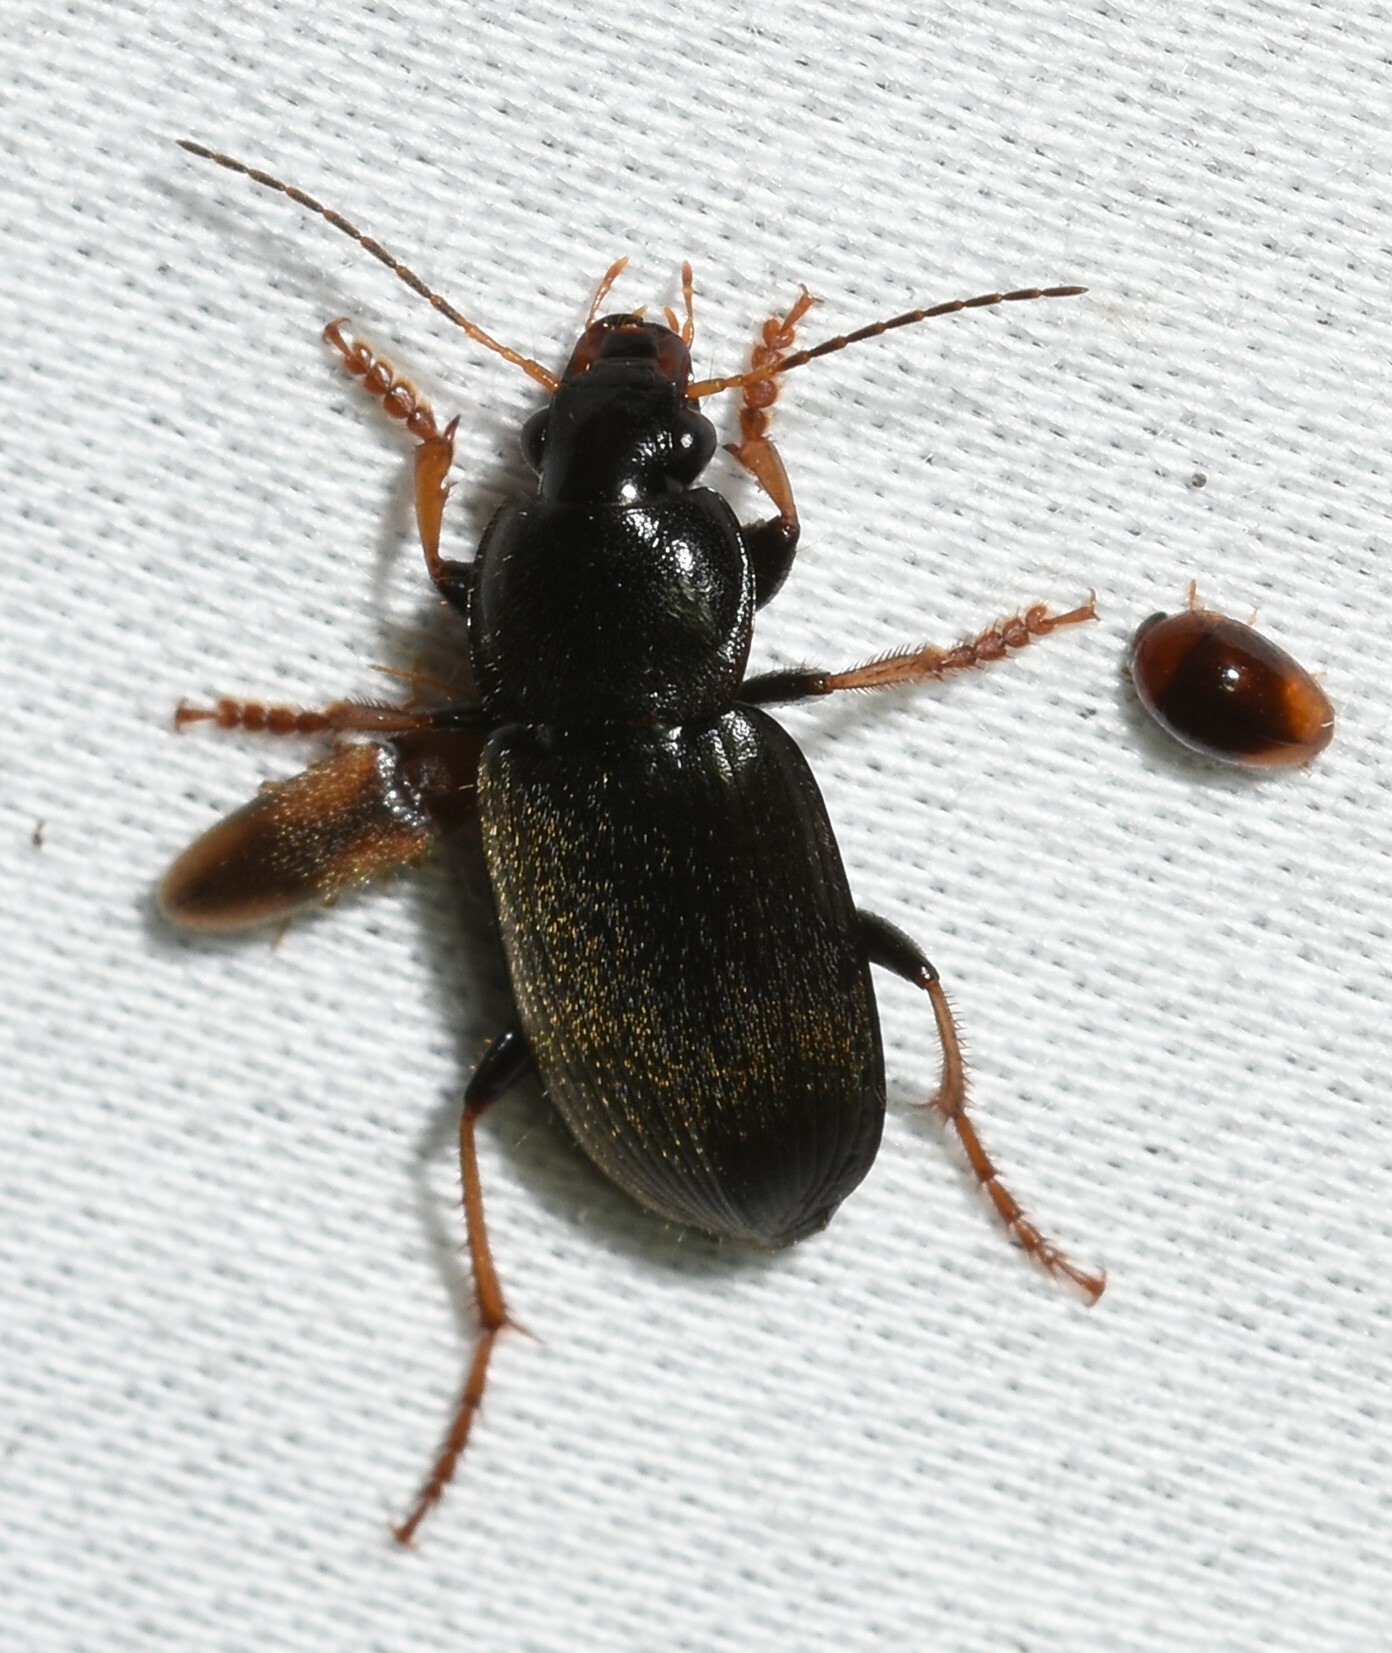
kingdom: Animalia
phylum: Arthropoda
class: Insecta
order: Coleoptera
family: Carabidae
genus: Amphasia
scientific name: Amphasia sericea
